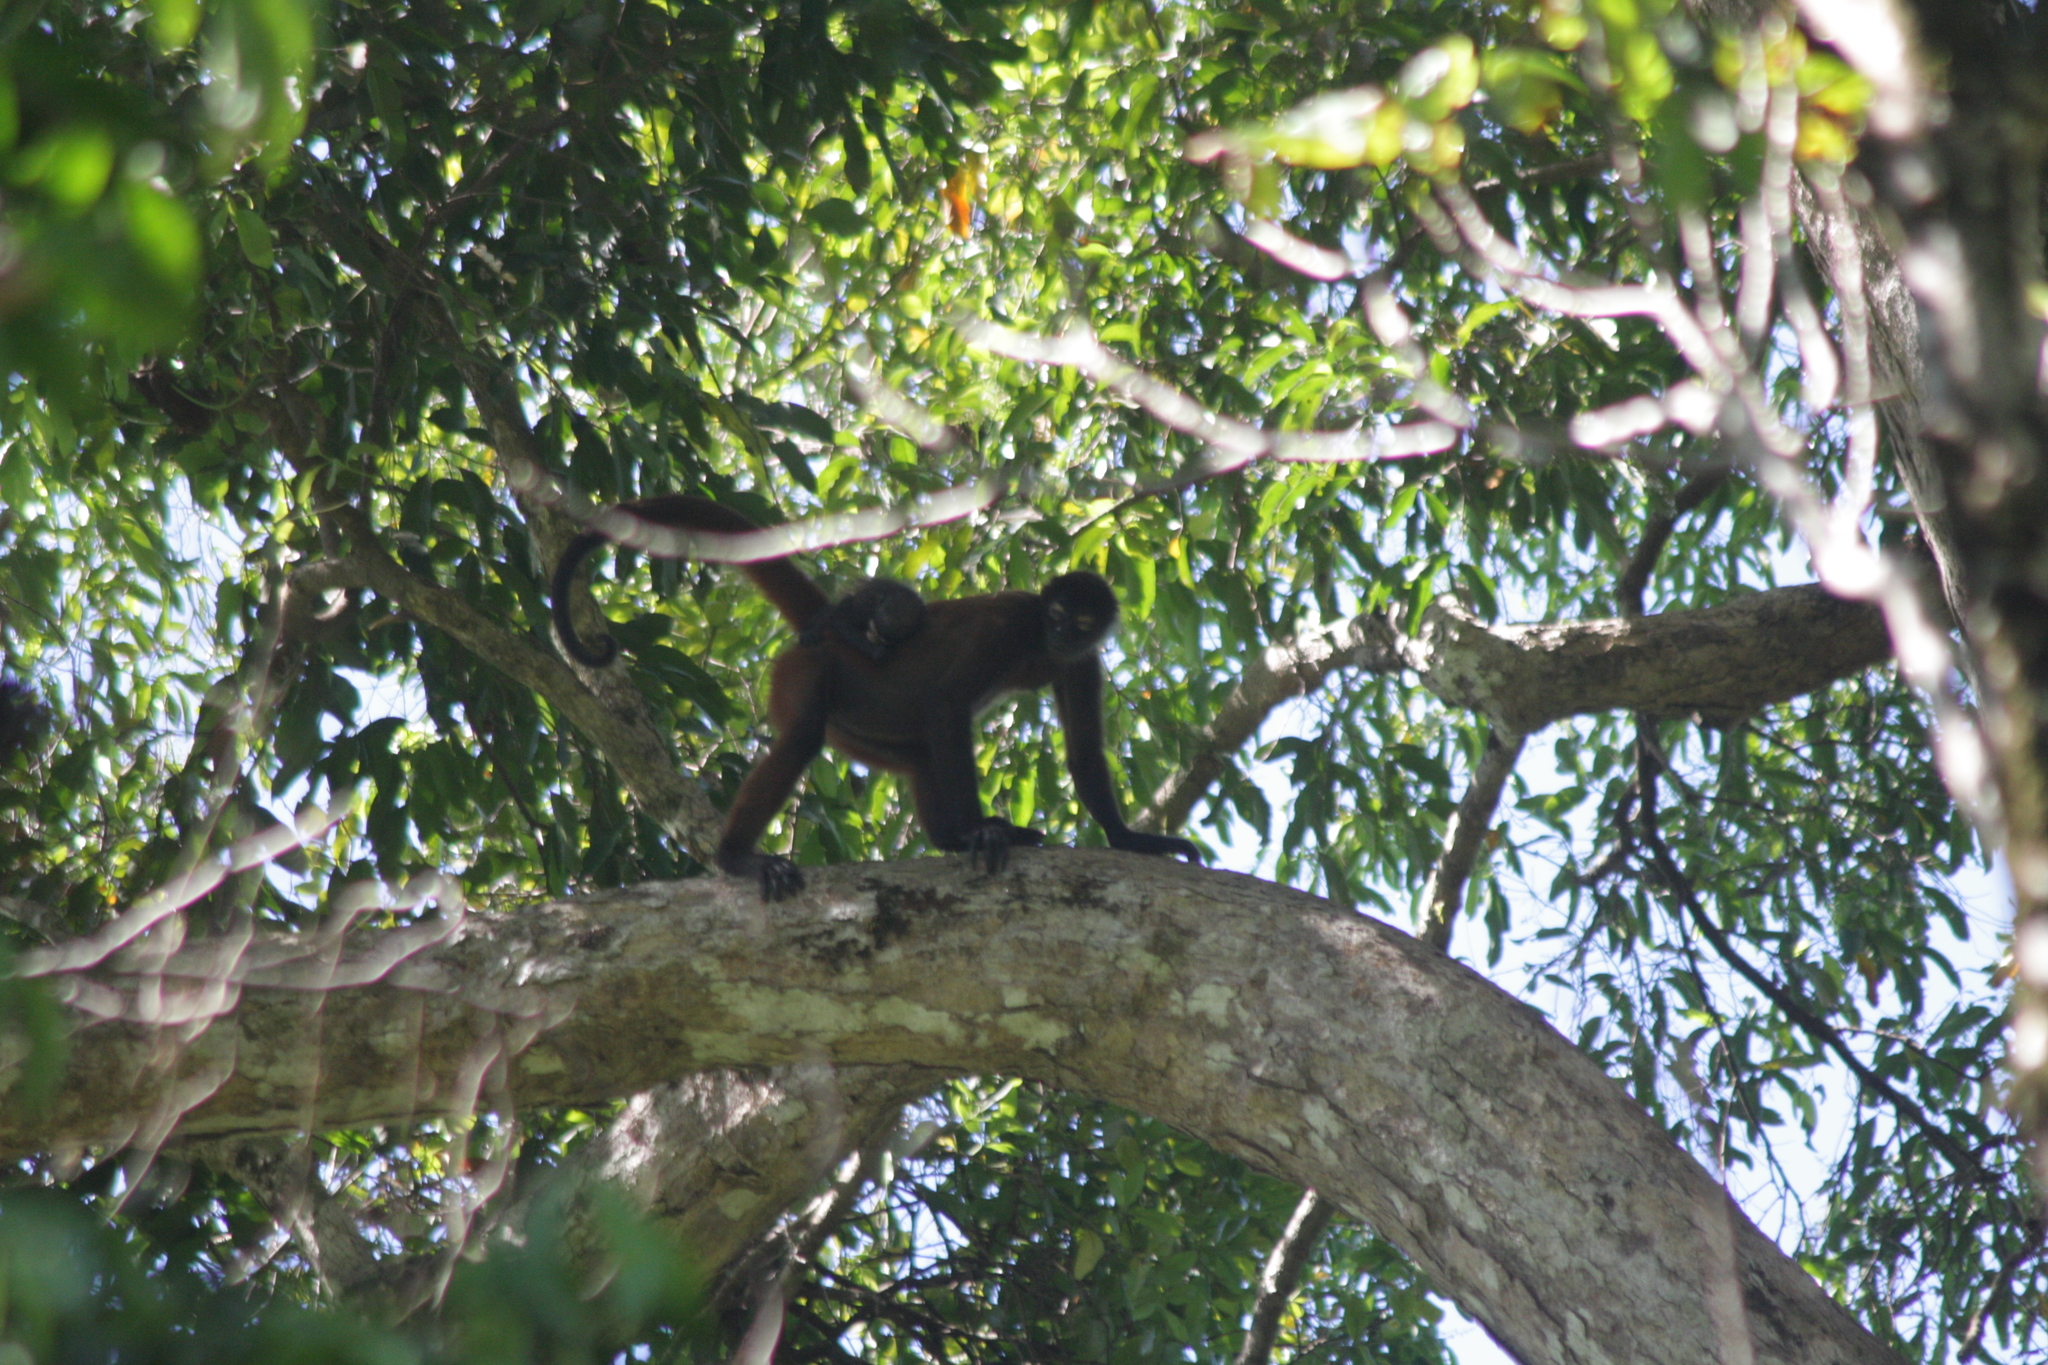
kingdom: Animalia
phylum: Chordata
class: Mammalia
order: Primates
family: Atelidae
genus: Ateles
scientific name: Ateles geoffroyi
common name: Black-handed spider monkey
